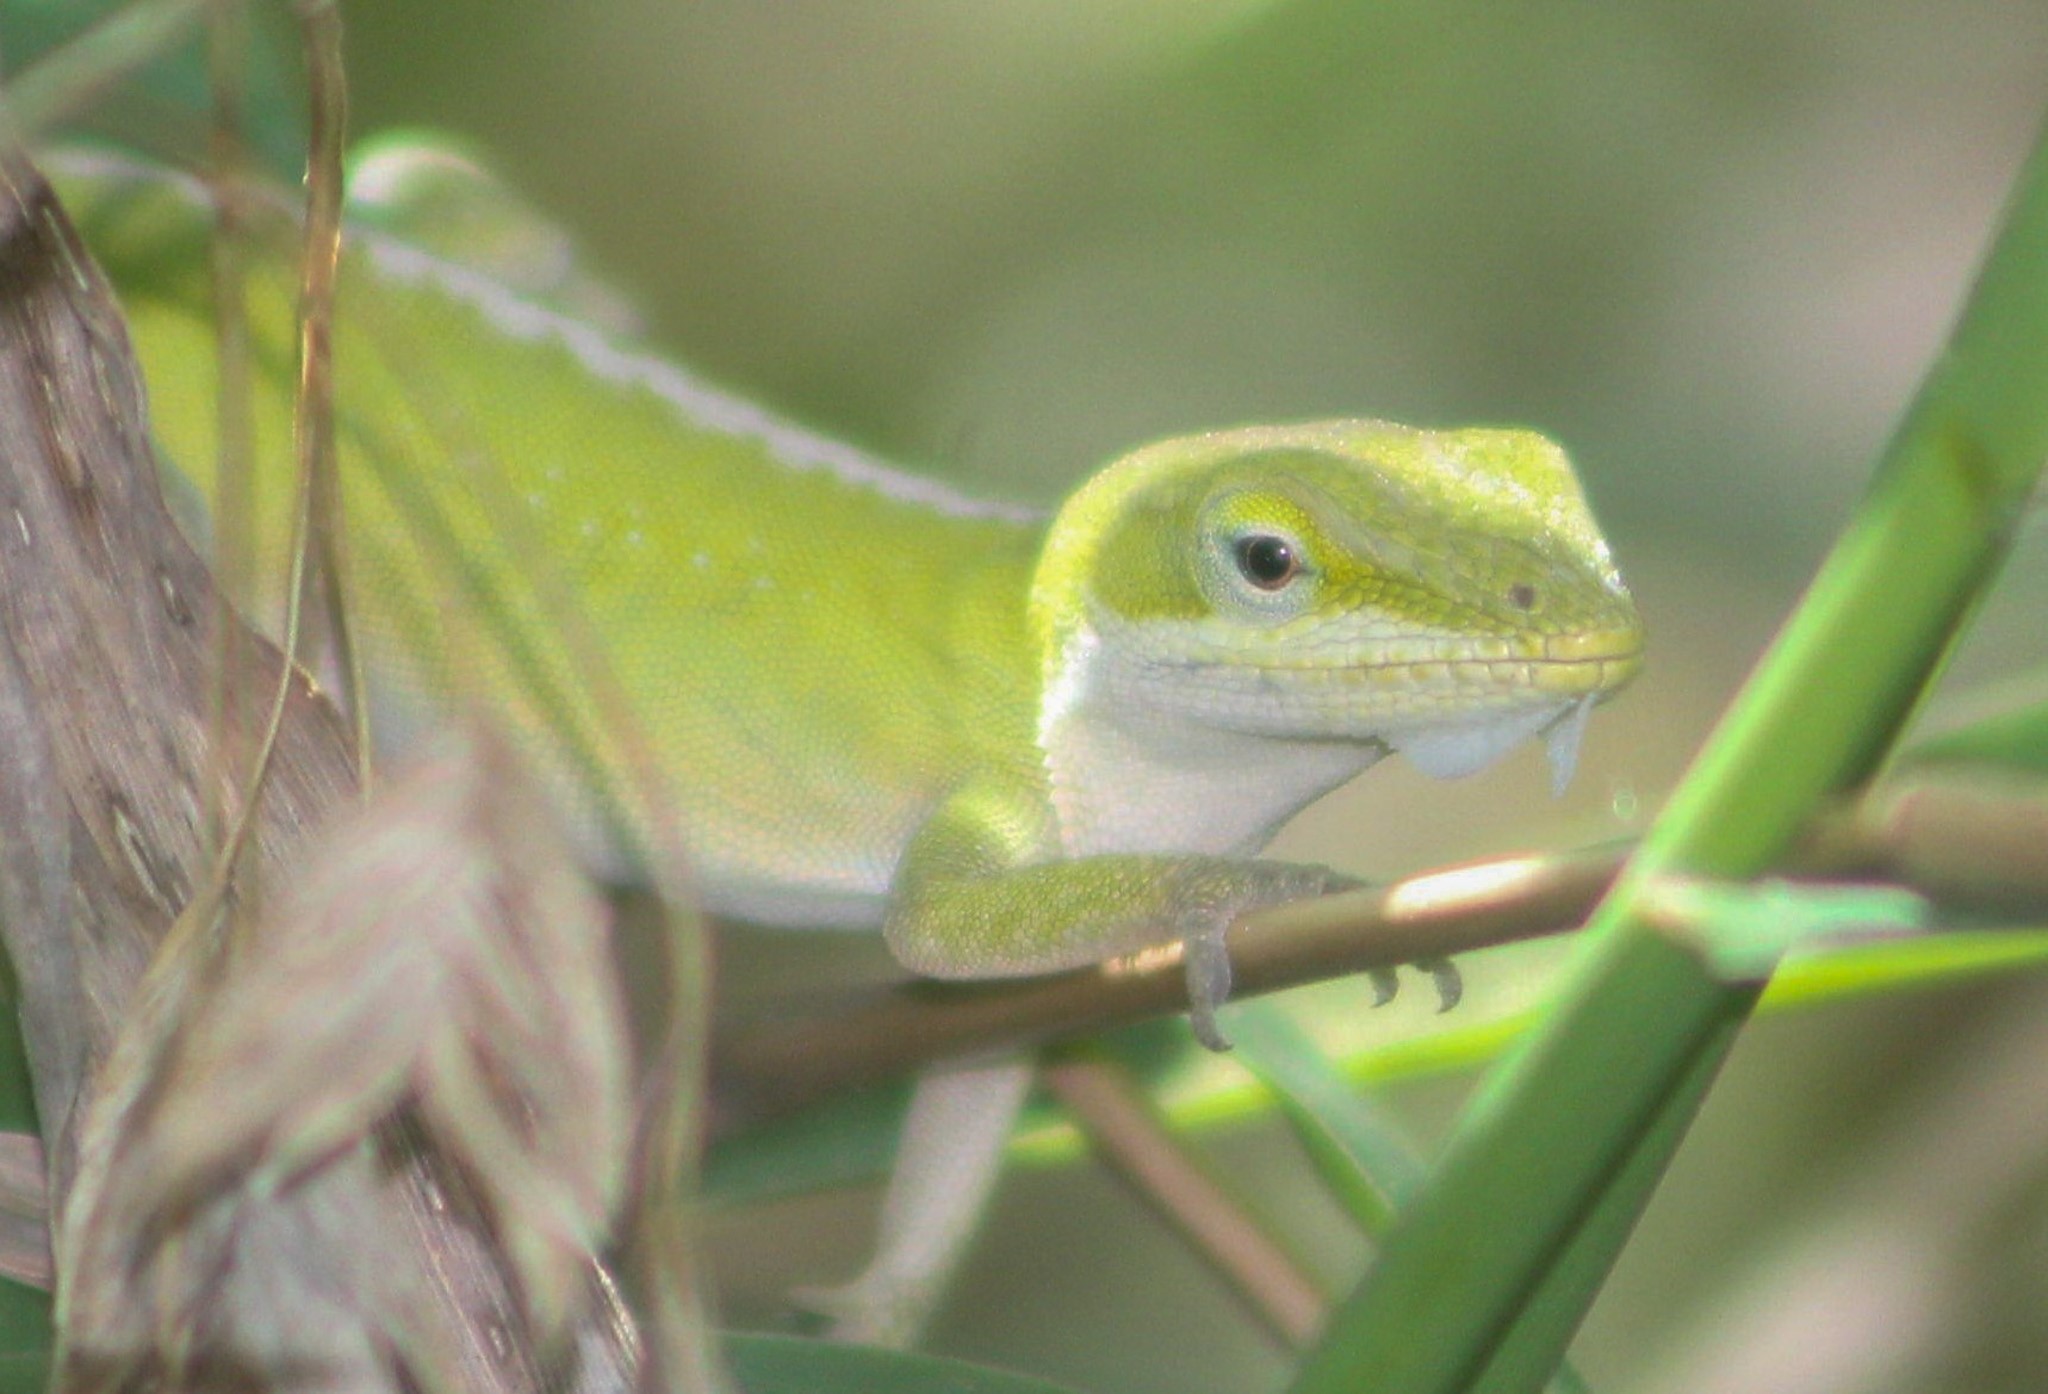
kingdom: Animalia
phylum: Chordata
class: Squamata
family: Dactyloidae
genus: Anolis
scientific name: Anolis carolinensis
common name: Green anole
